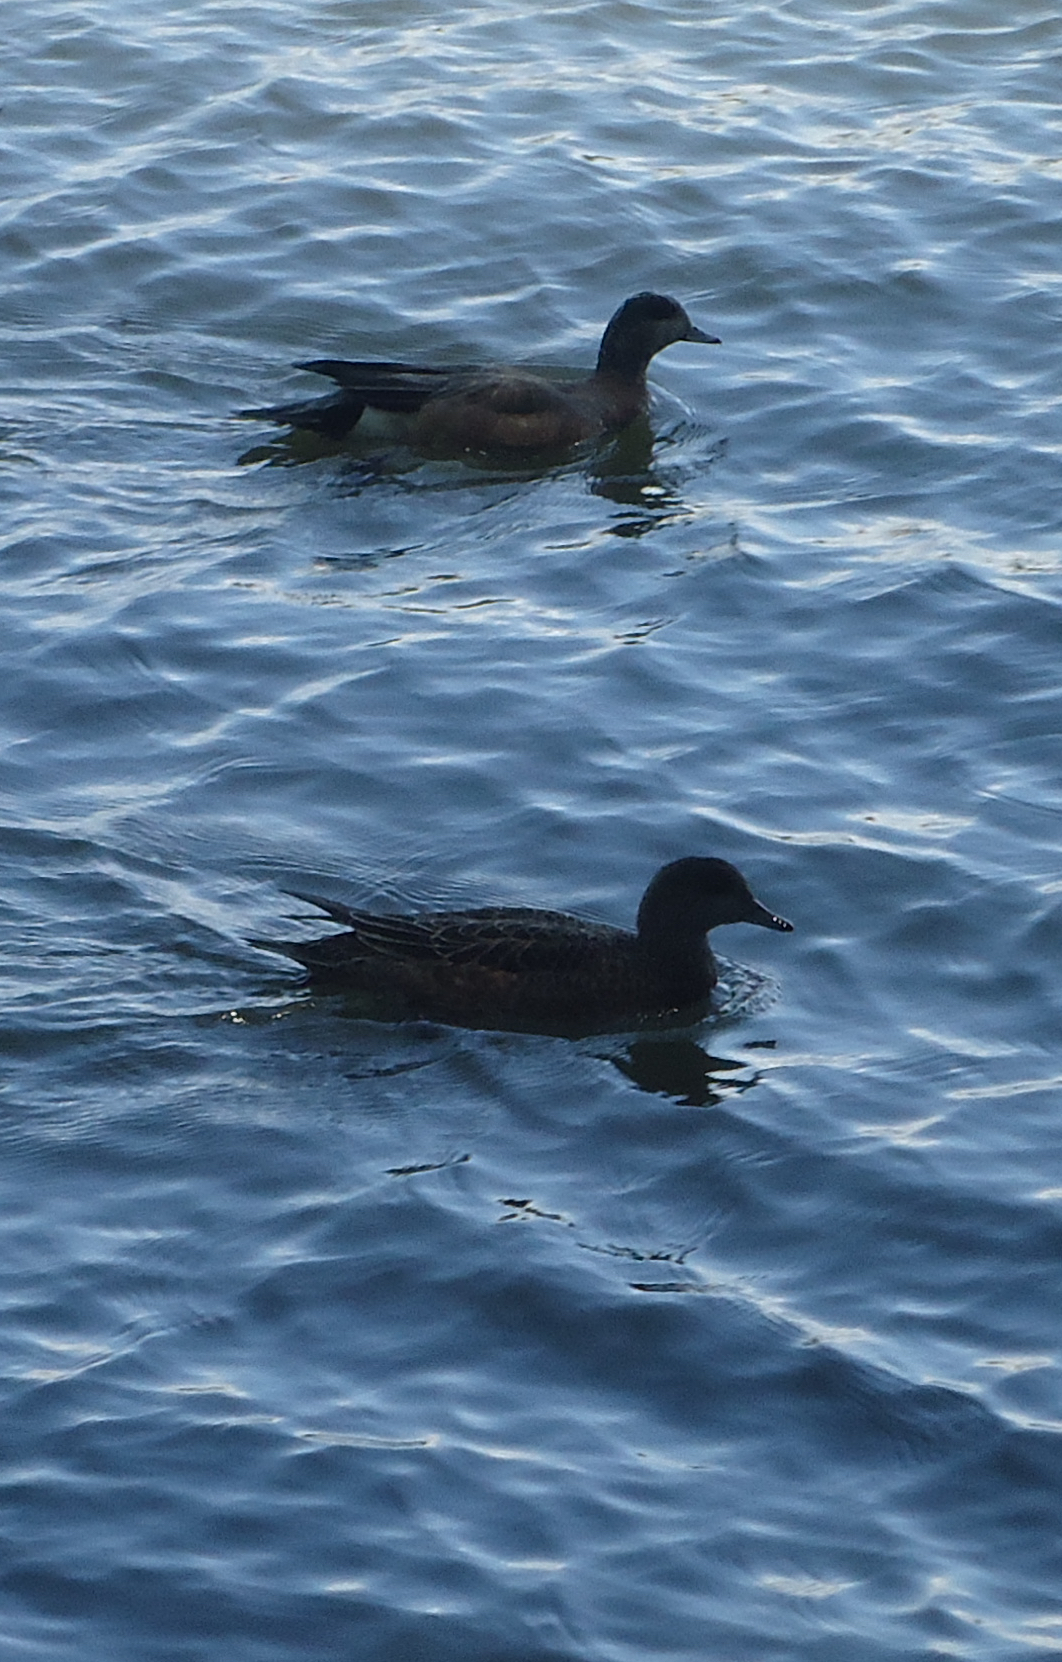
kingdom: Animalia
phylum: Chordata
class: Aves
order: Anseriformes
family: Anatidae
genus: Mareca
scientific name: Mareca americana
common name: American wigeon
